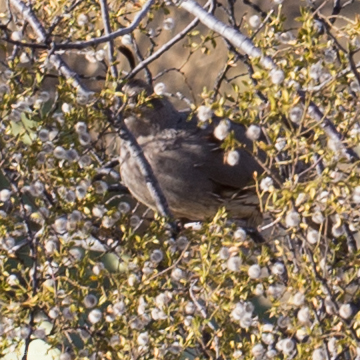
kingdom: Animalia
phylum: Chordata
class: Aves
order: Galliformes
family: Odontophoridae
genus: Callipepla
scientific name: Callipepla gambelii
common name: Gambel's quail
